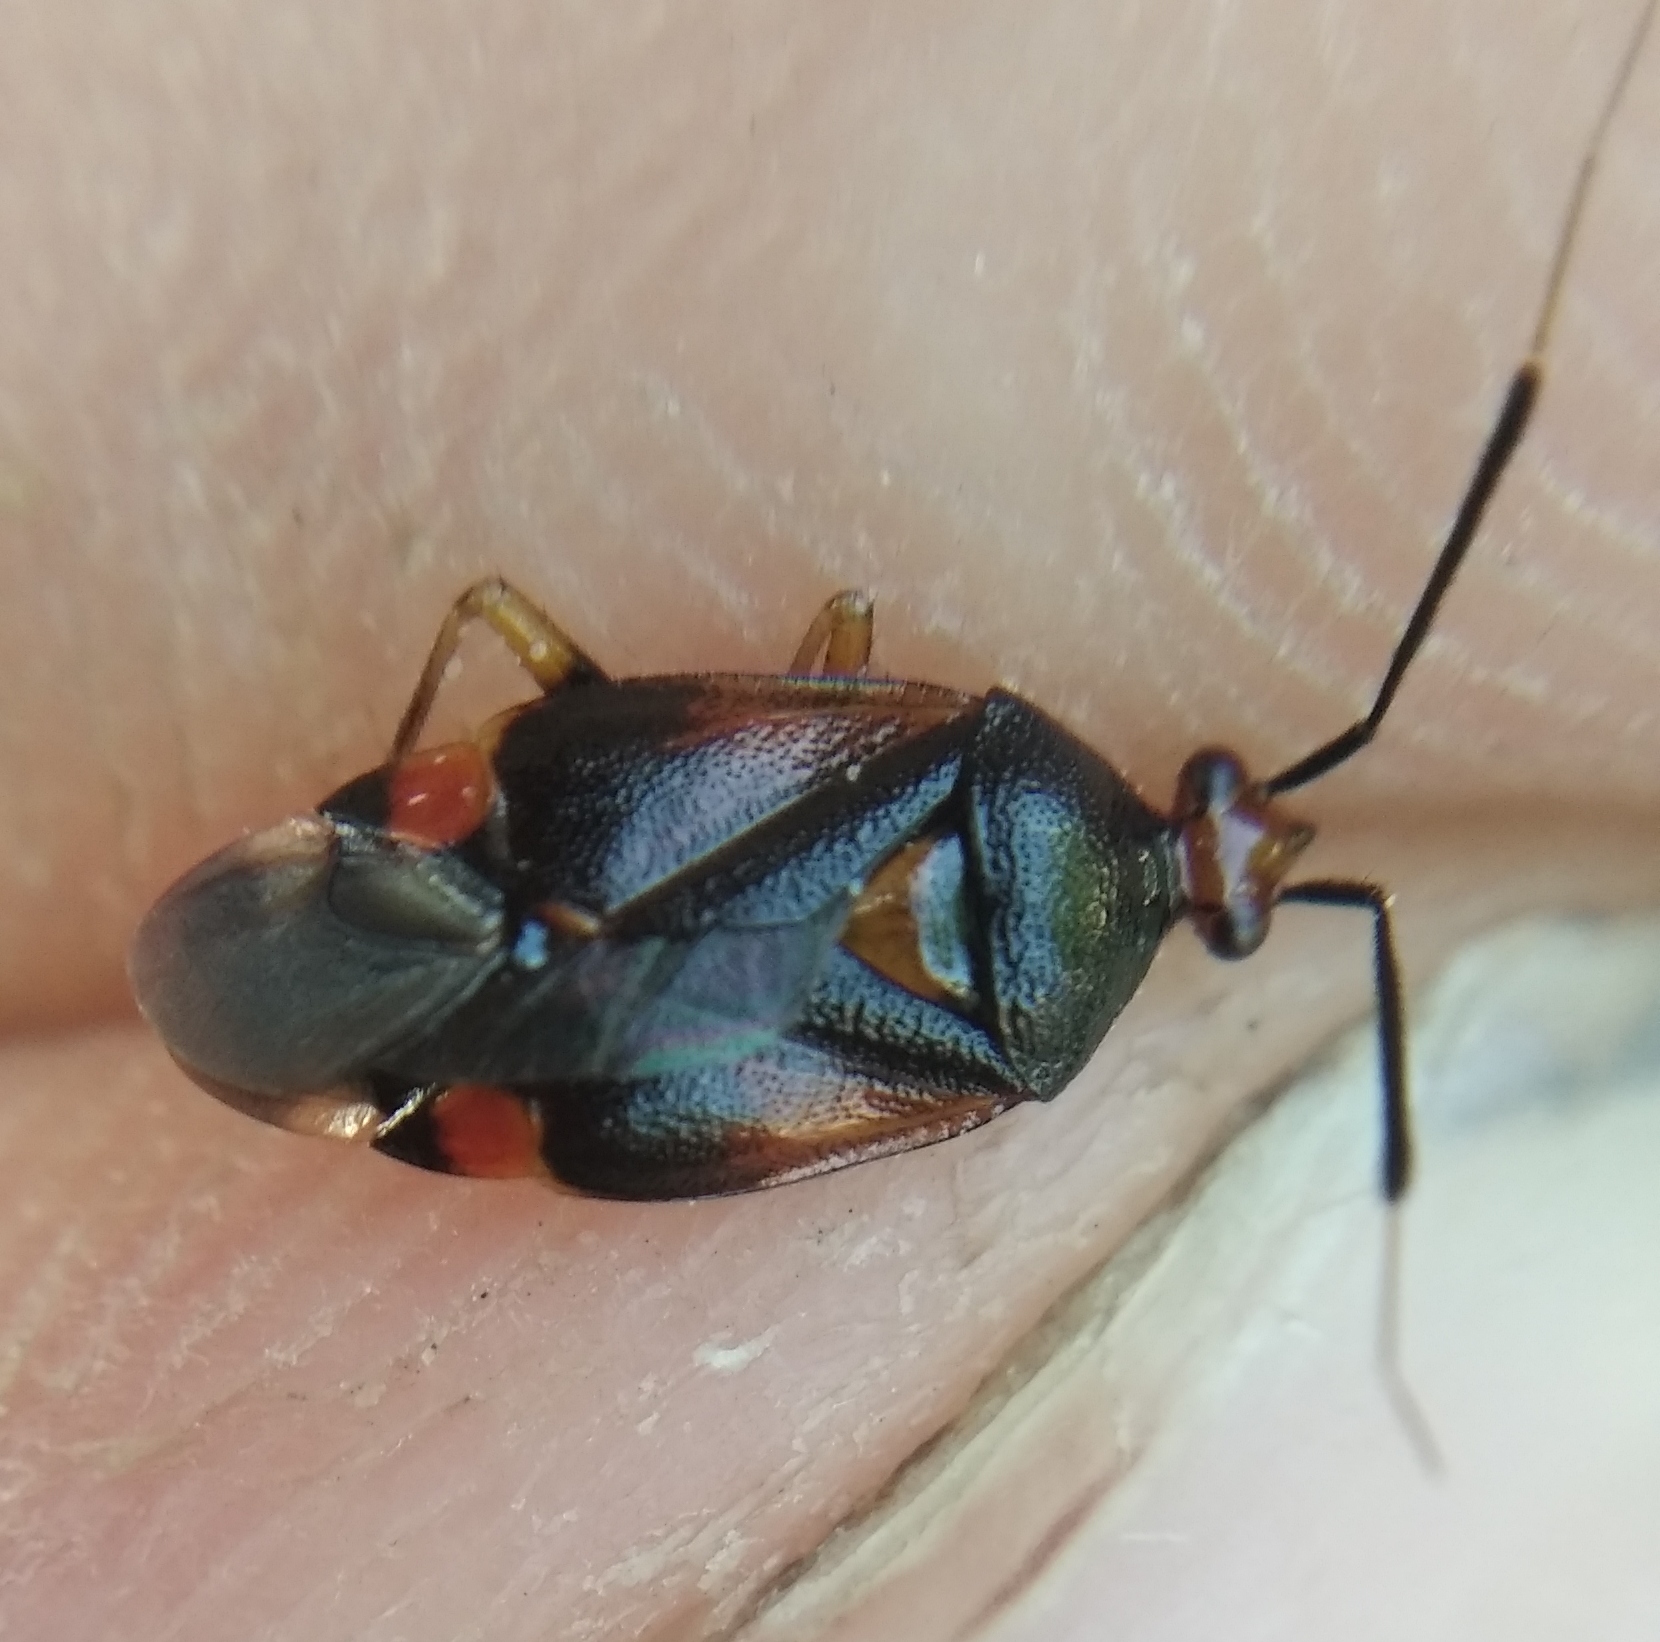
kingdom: Animalia
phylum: Arthropoda
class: Insecta
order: Hemiptera
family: Miridae
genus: Deraeocoris
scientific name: Deraeocoris ruber
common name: Plant bug
